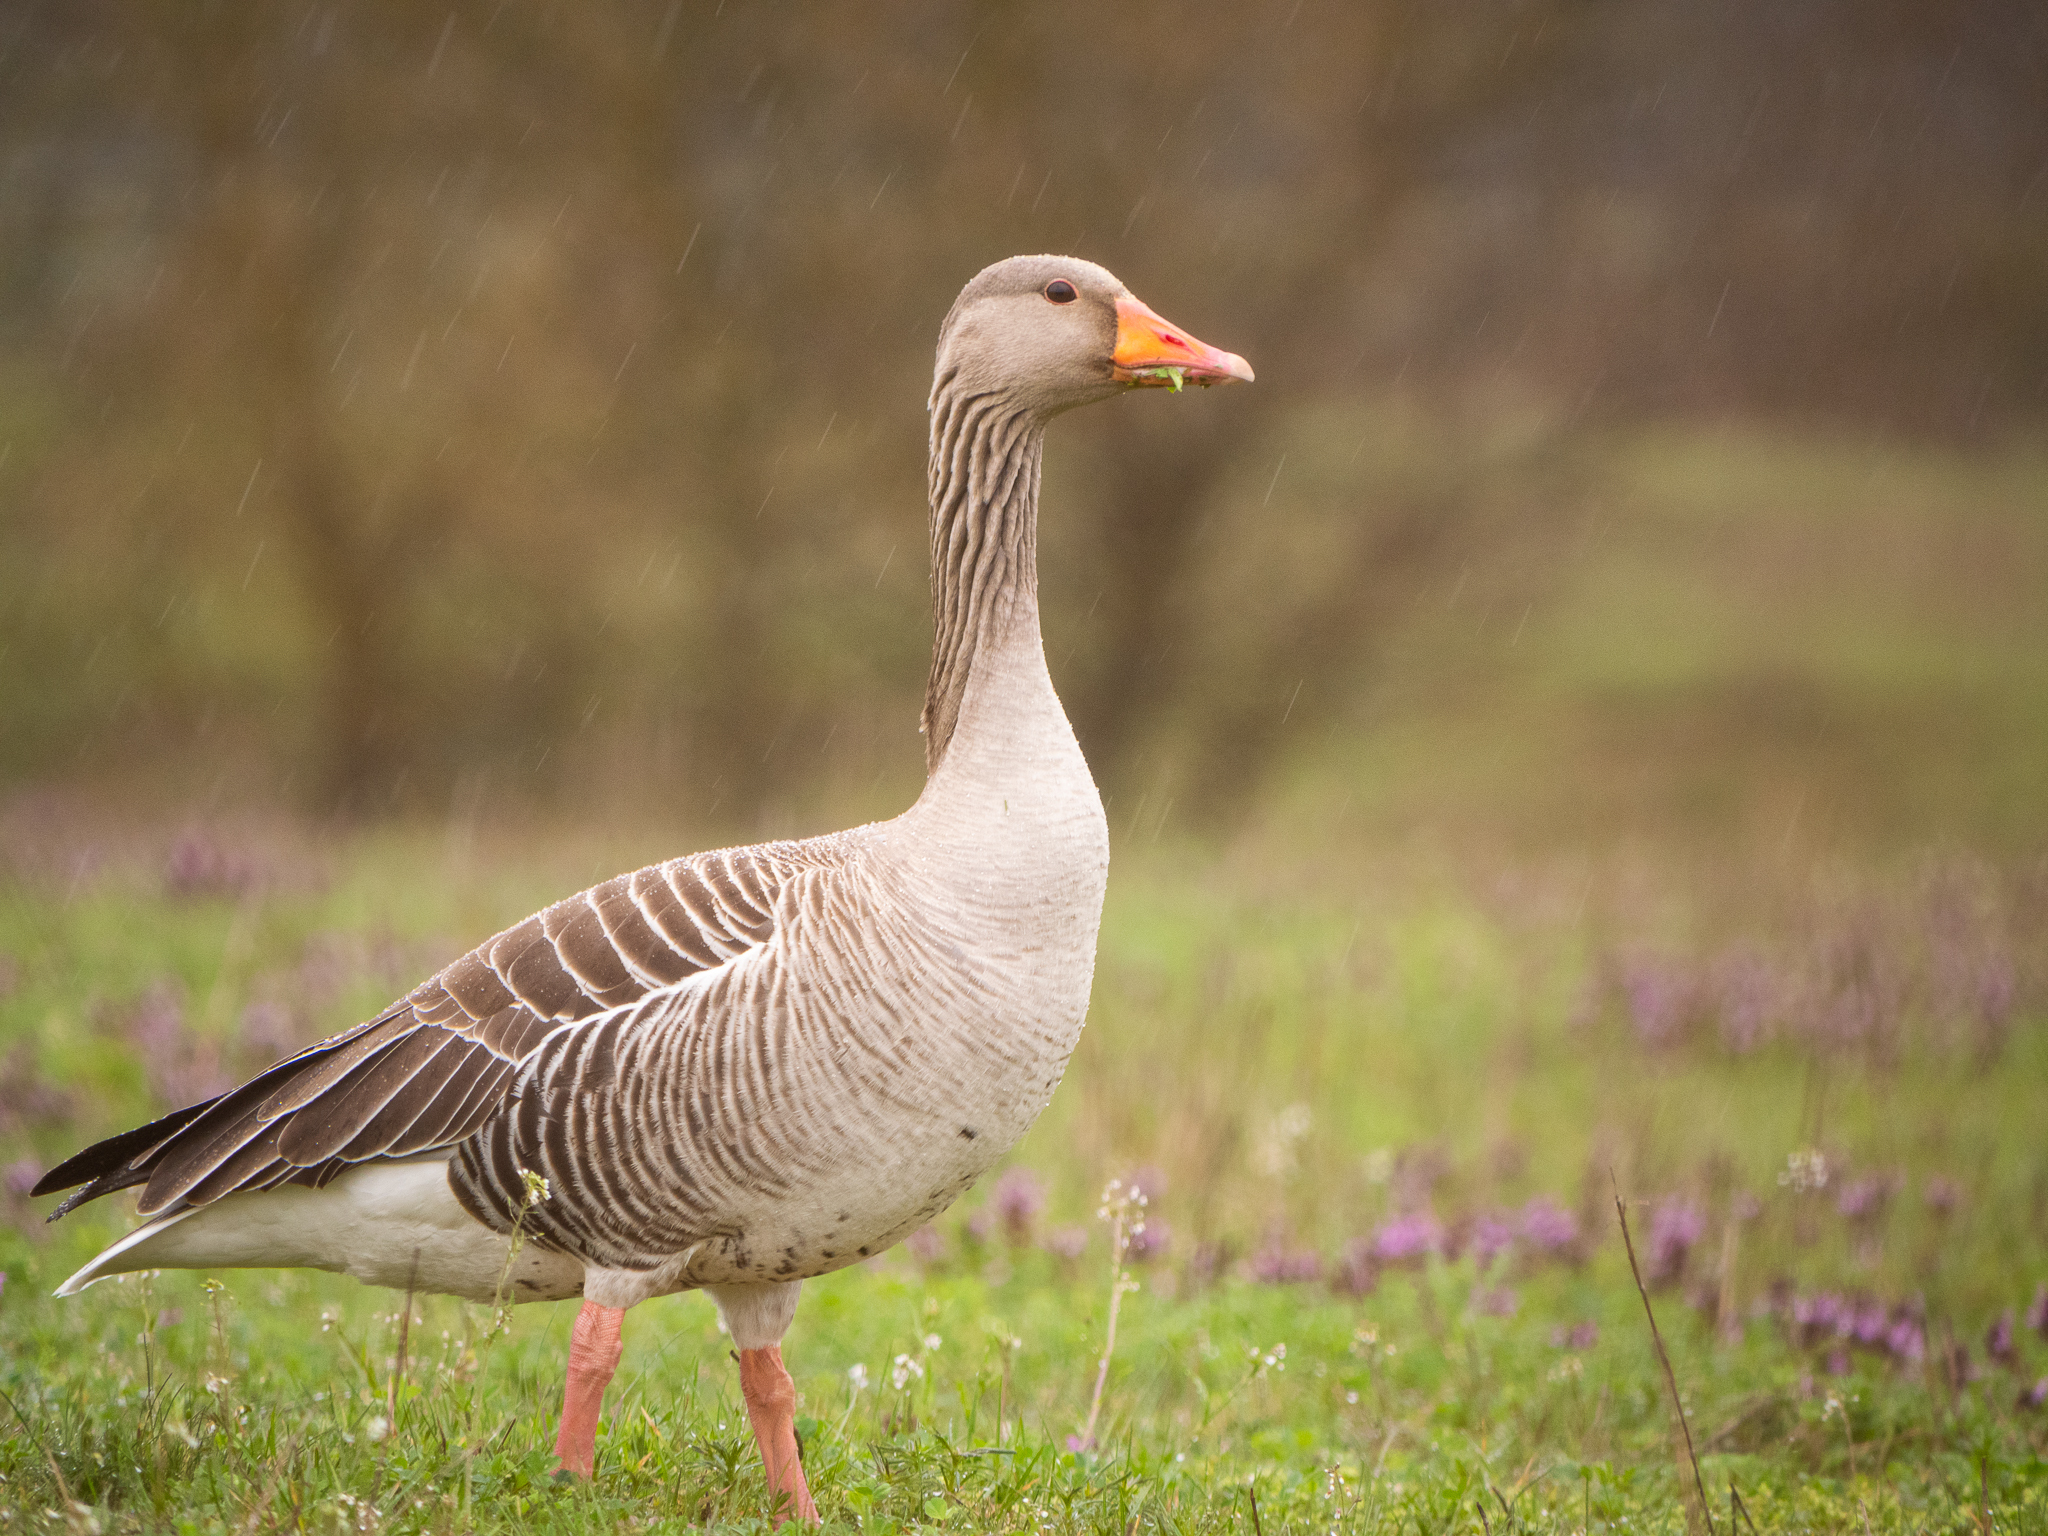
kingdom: Animalia
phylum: Chordata
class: Aves
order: Anseriformes
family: Anatidae
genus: Anser
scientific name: Anser anser
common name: Greylag goose
